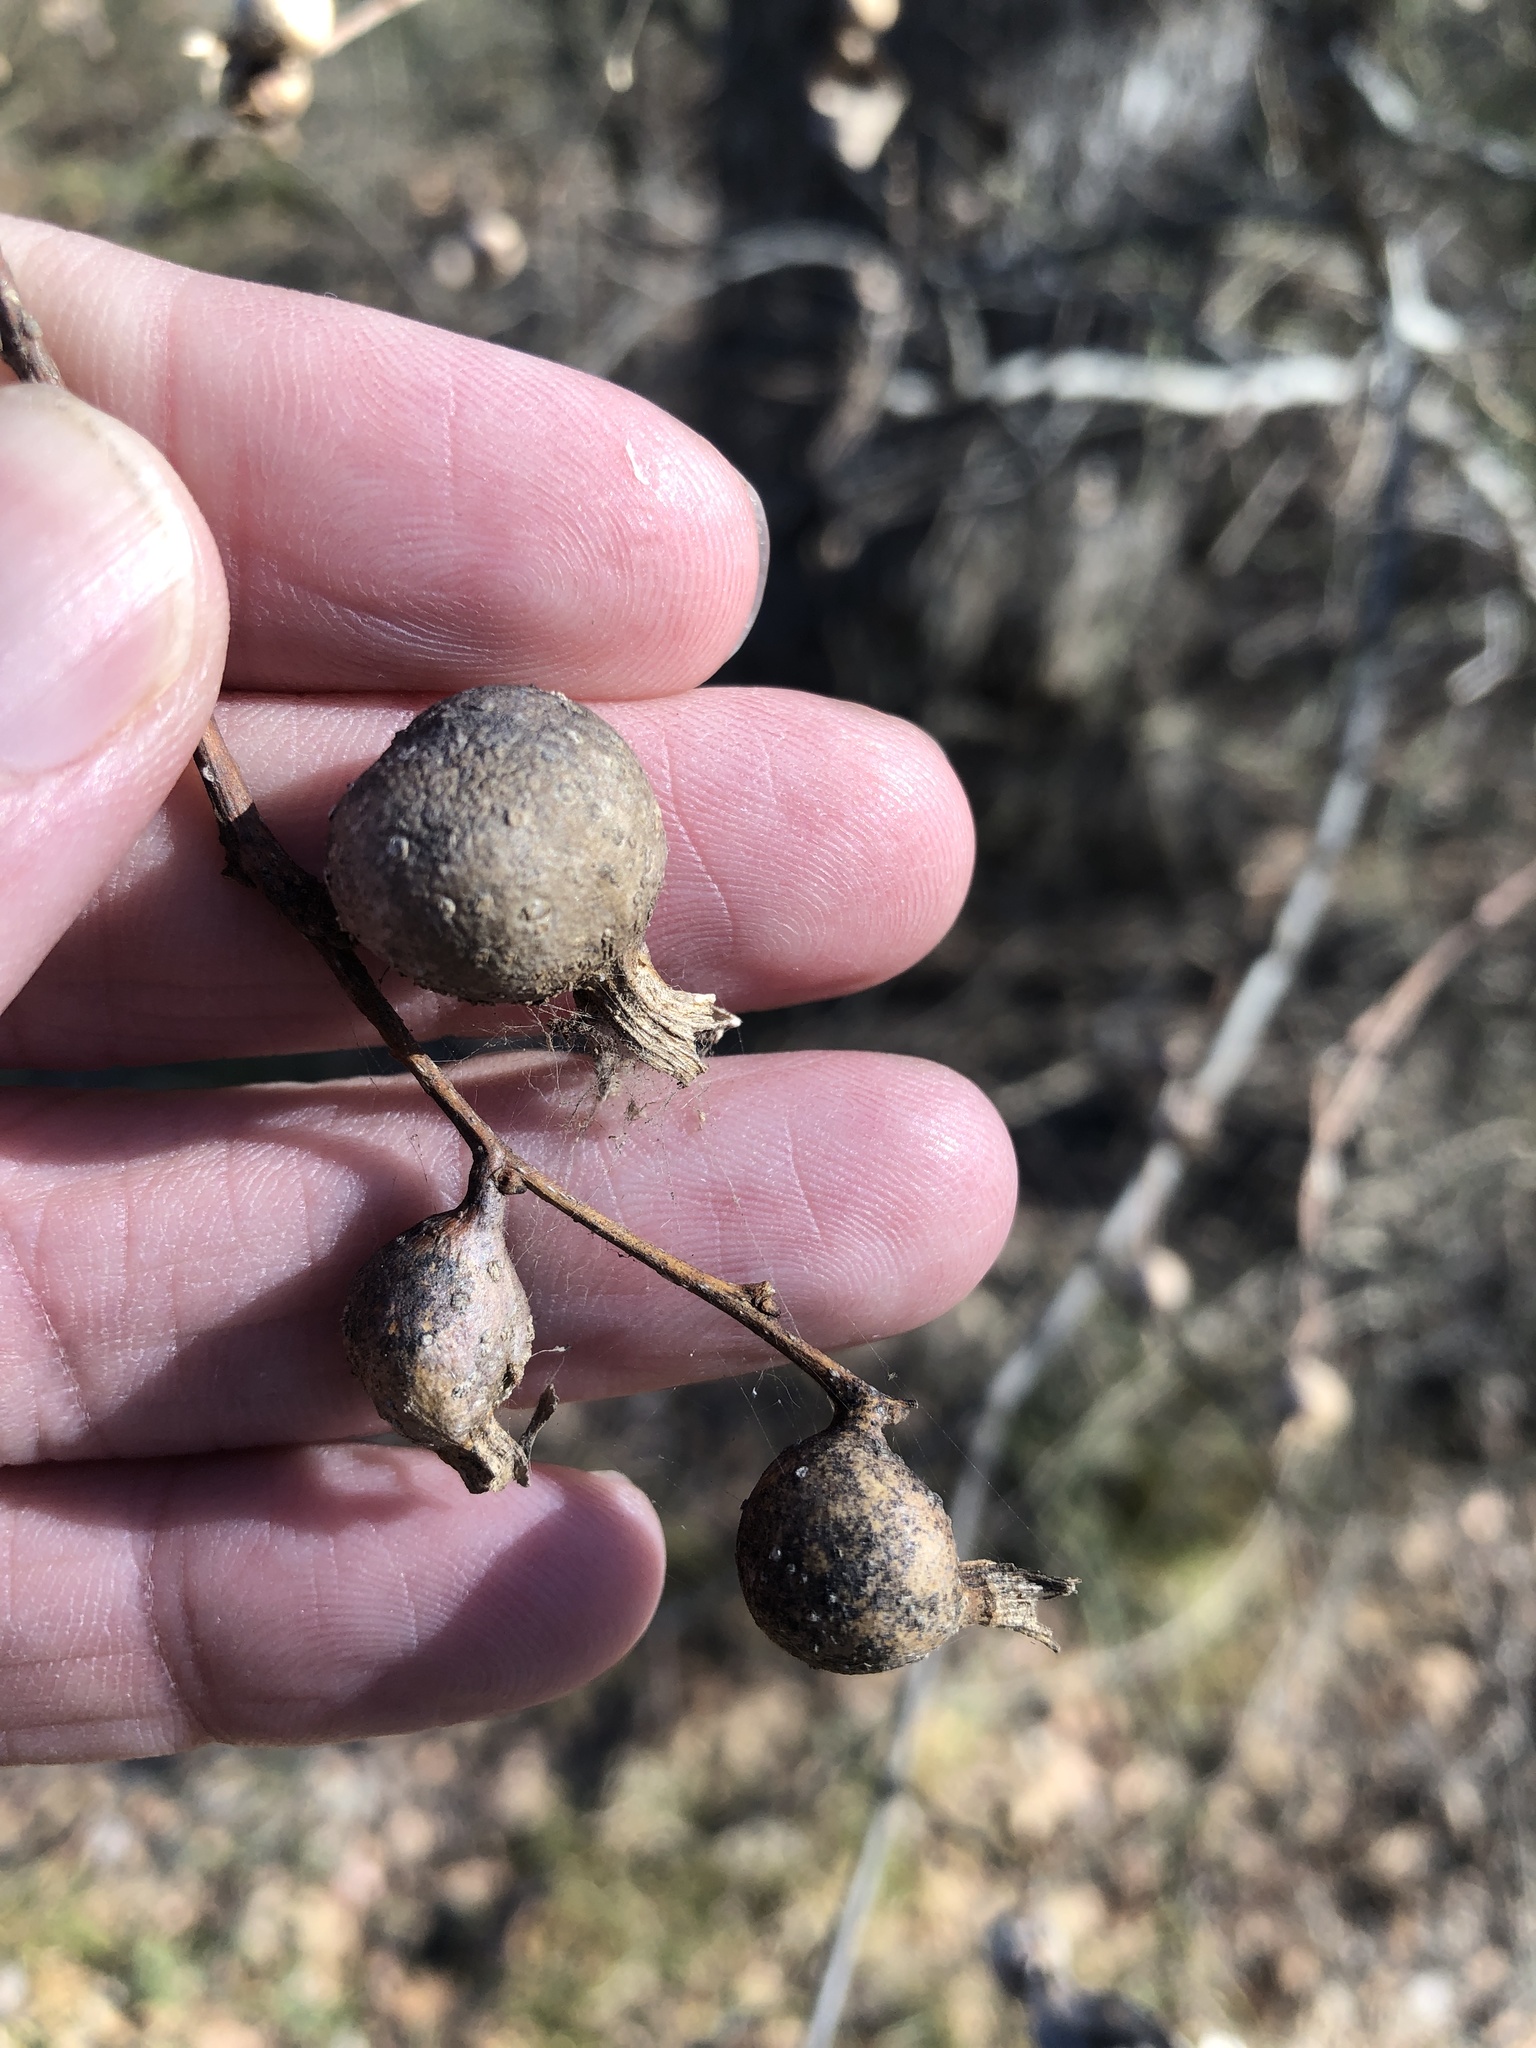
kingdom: Animalia
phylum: Arthropoda
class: Insecta
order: Hemiptera
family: Aphalaridae
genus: Pachypsylla
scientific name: Pachypsylla venusta
